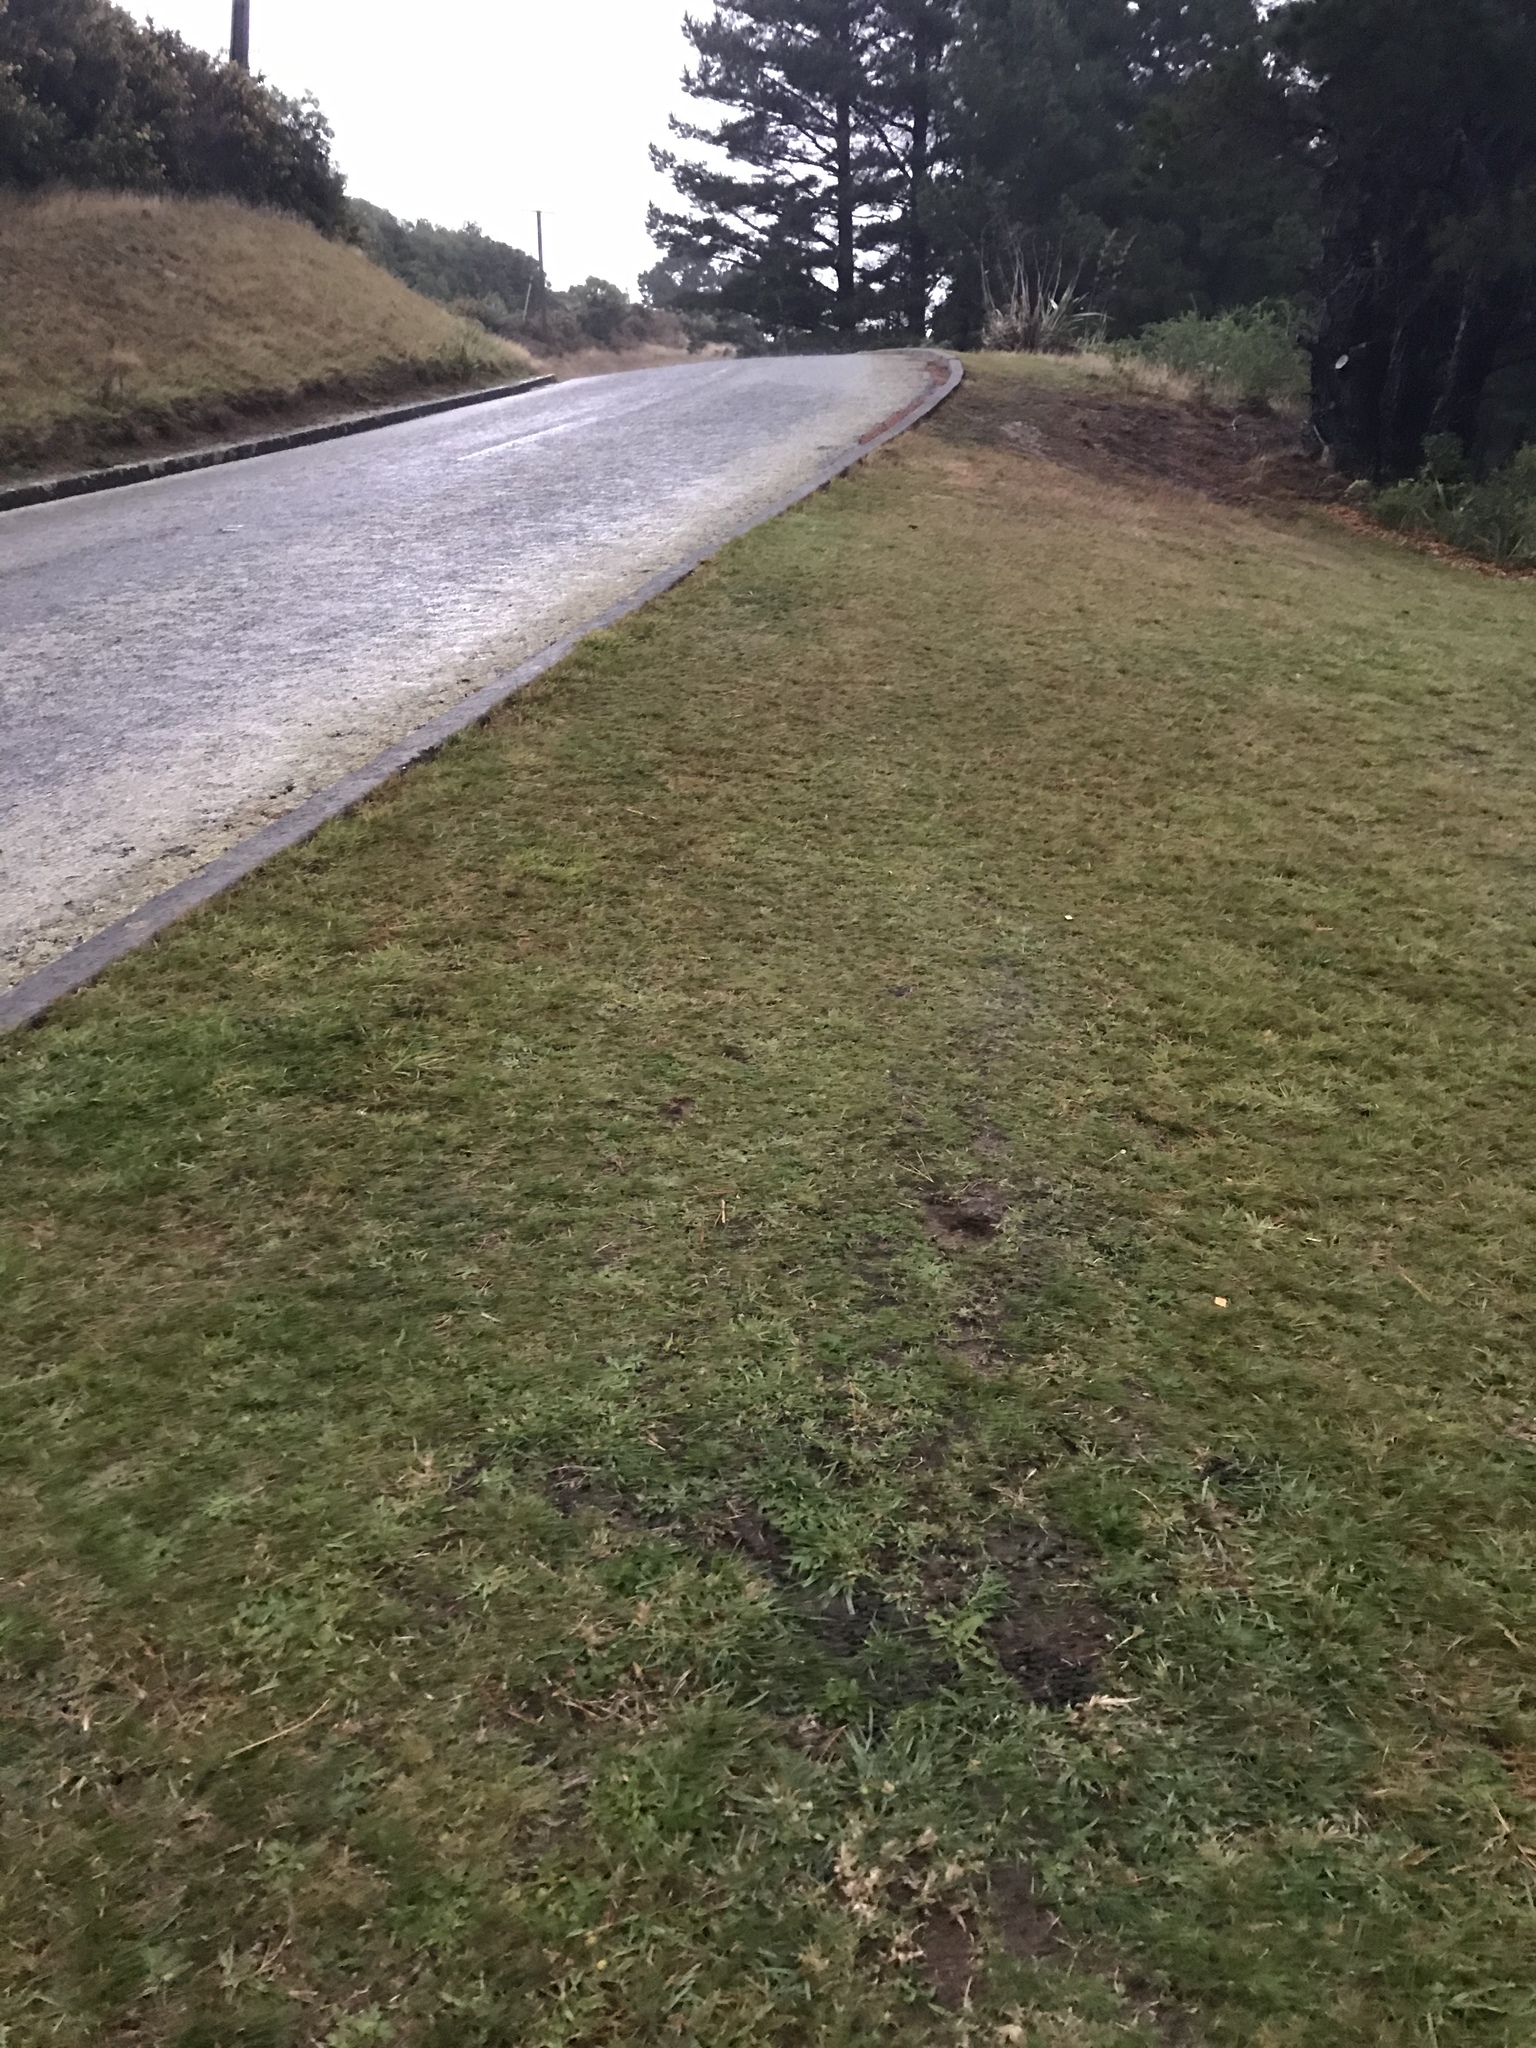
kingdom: Animalia
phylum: Chordata
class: Mammalia
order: Lagomorpha
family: Leporidae
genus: Oryctolagus
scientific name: Oryctolagus cuniculus
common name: European rabbit
